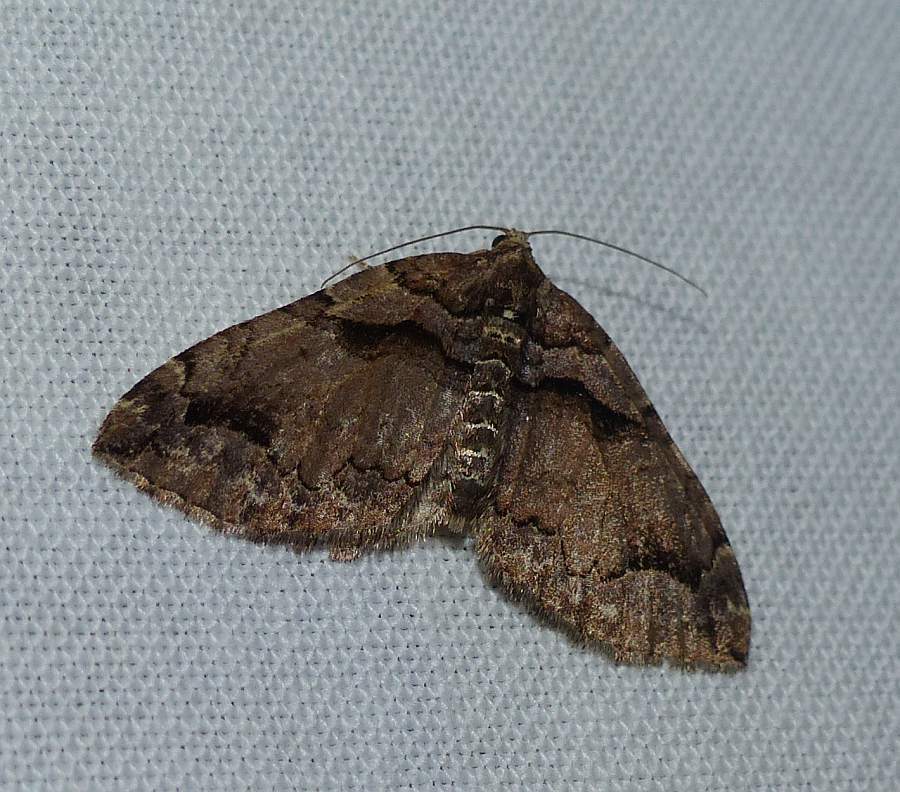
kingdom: Animalia
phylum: Arthropoda
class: Insecta
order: Lepidoptera
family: Geometridae
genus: Anticlea
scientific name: Anticlea vasiliata
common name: Variable carpet
